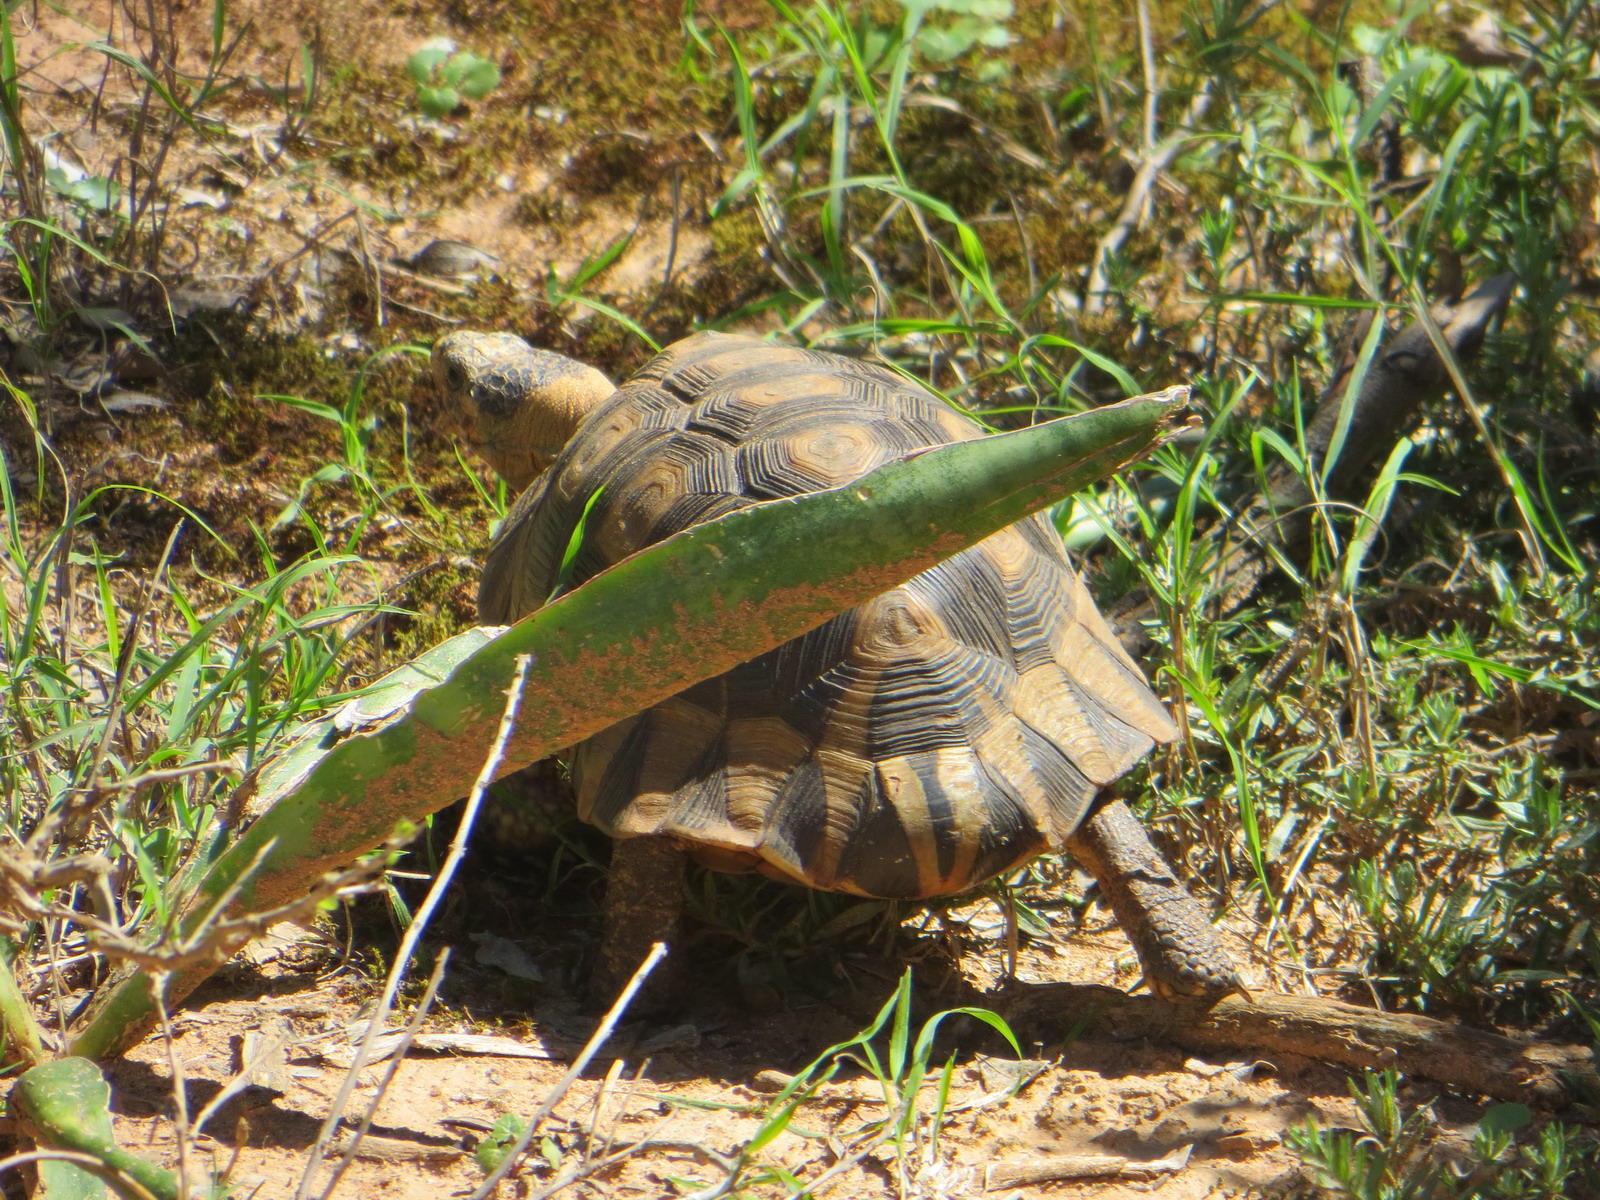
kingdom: Animalia
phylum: Chordata
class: Testudines
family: Testudinidae
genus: Chersina
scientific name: Chersina angulata
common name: South african bowsprit tortoise
